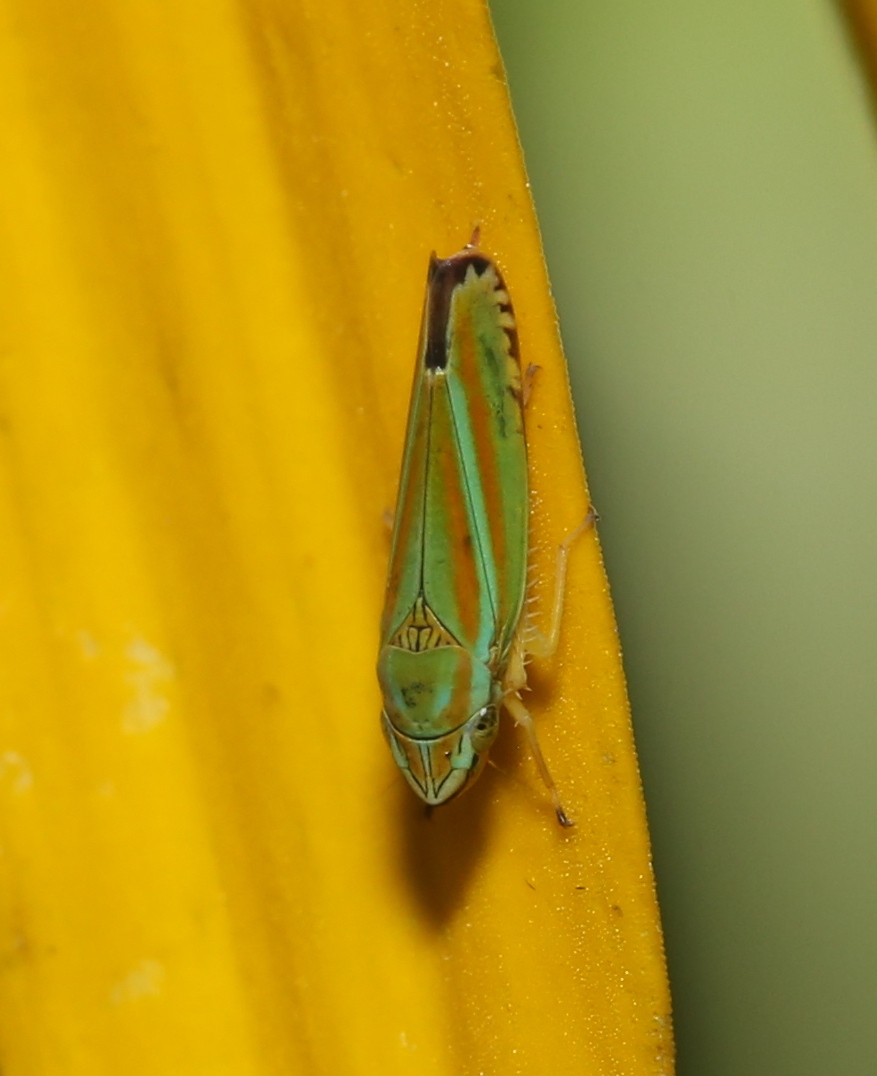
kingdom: Animalia
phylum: Arthropoda
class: Insecta
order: Hemiptera
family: Cicadellidae
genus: Graphocephala
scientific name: Graphocephala versuta
